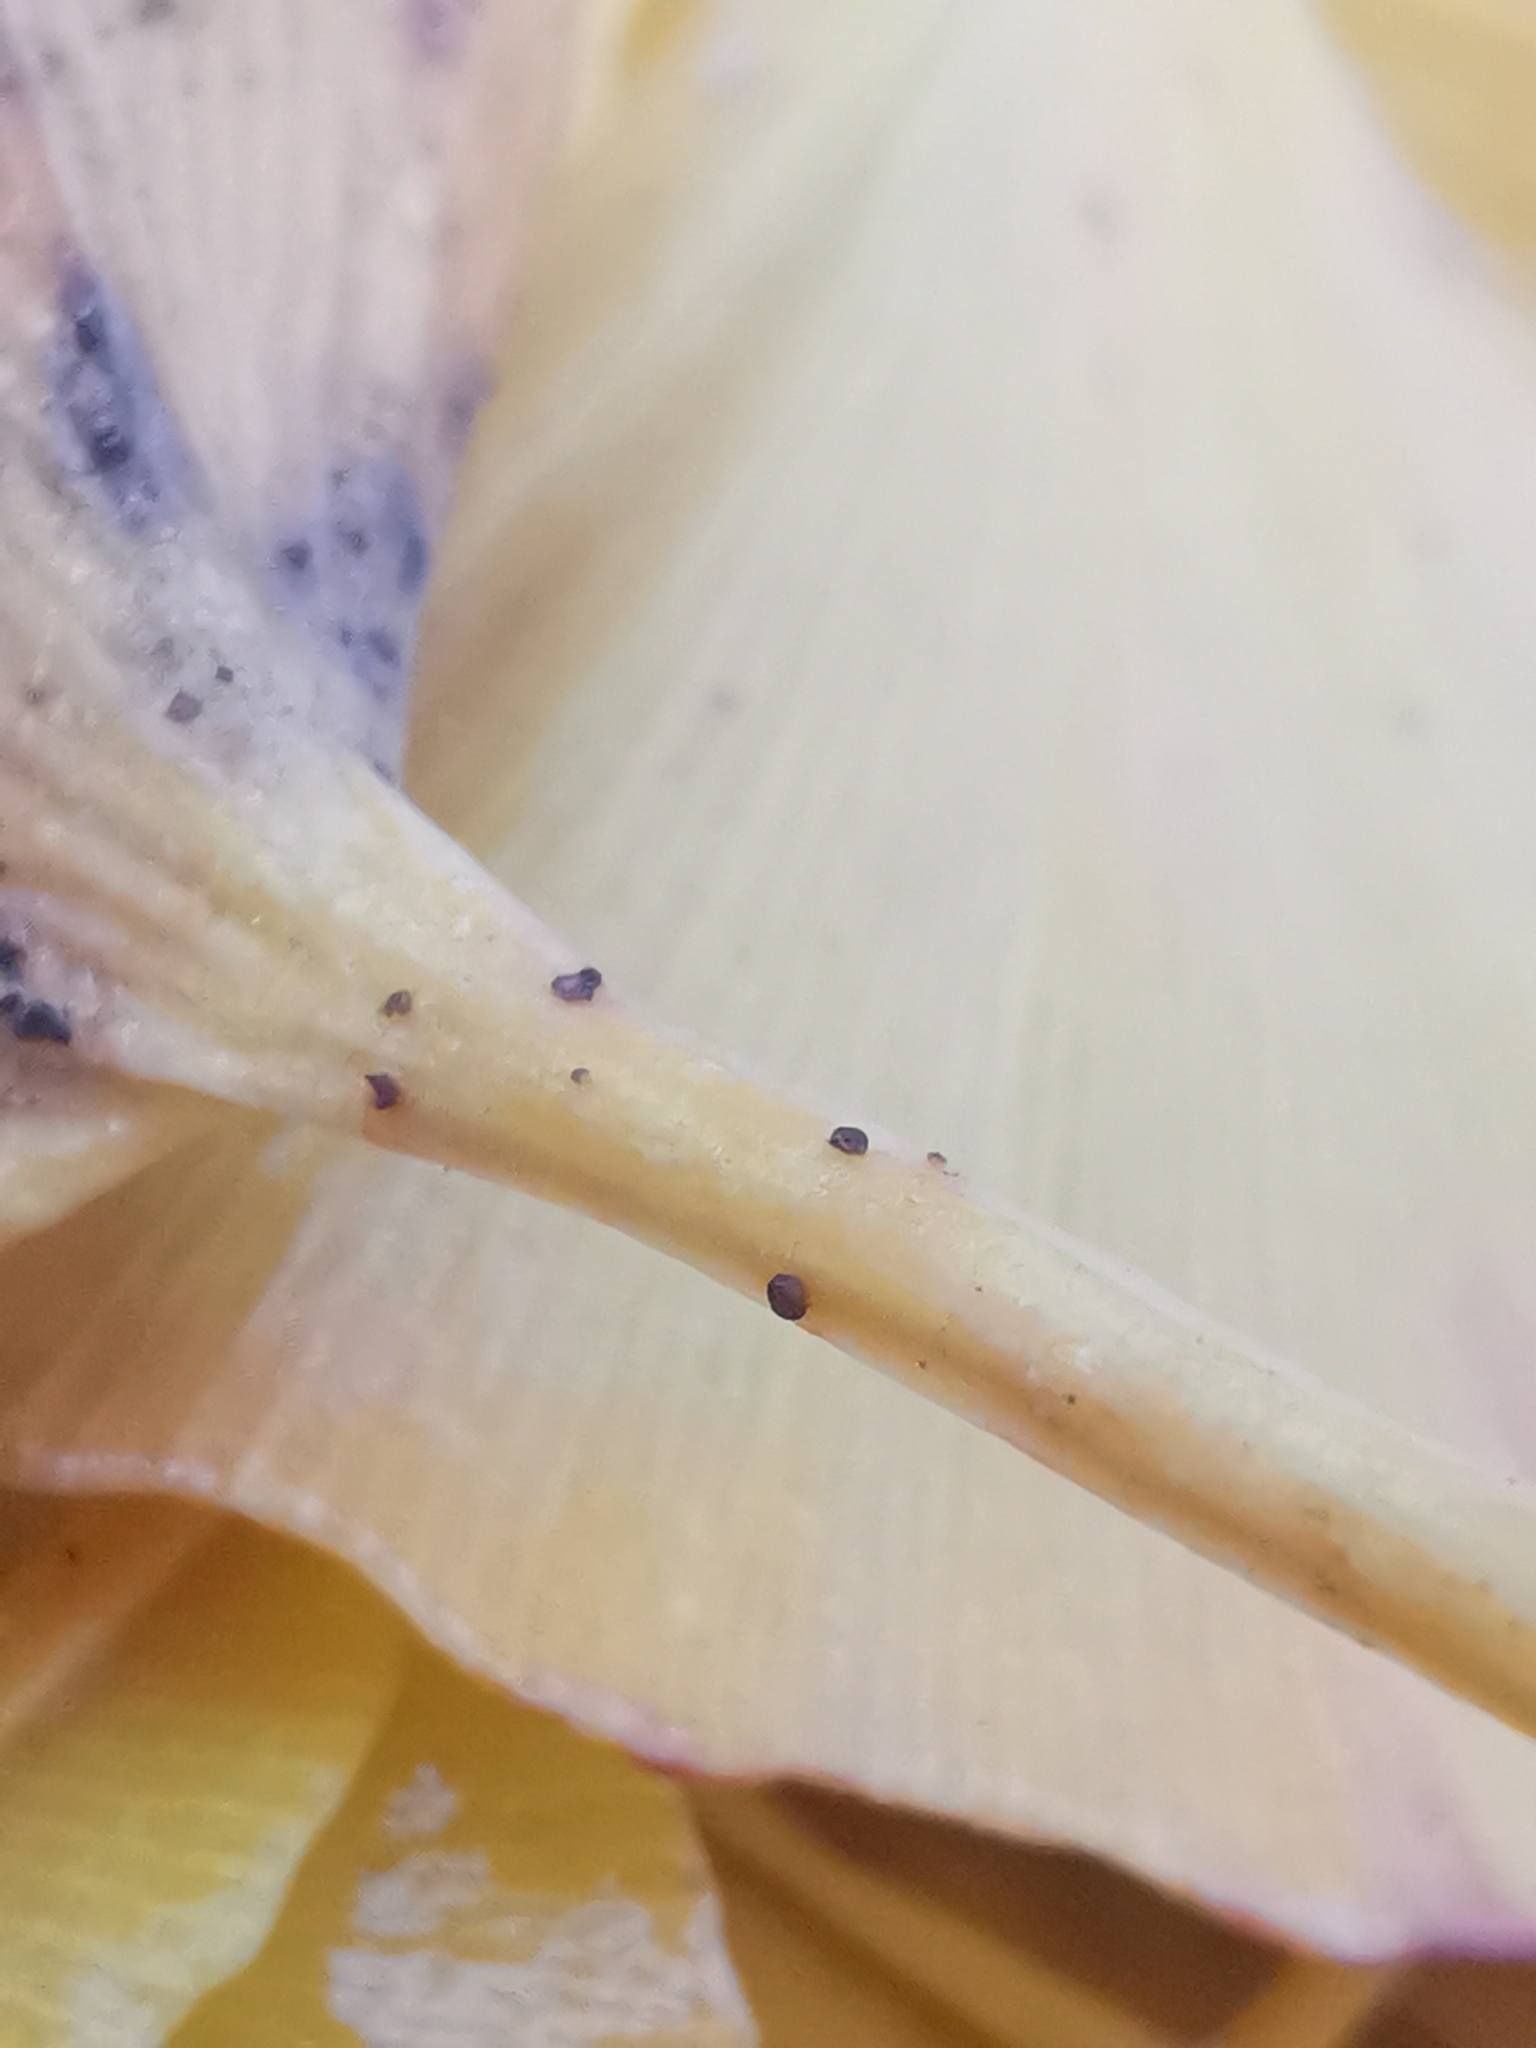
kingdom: Fungi
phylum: Basidiomycota
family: Bartheletiaceae
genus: Bartheletia
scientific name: Bartheletia paradoxa
